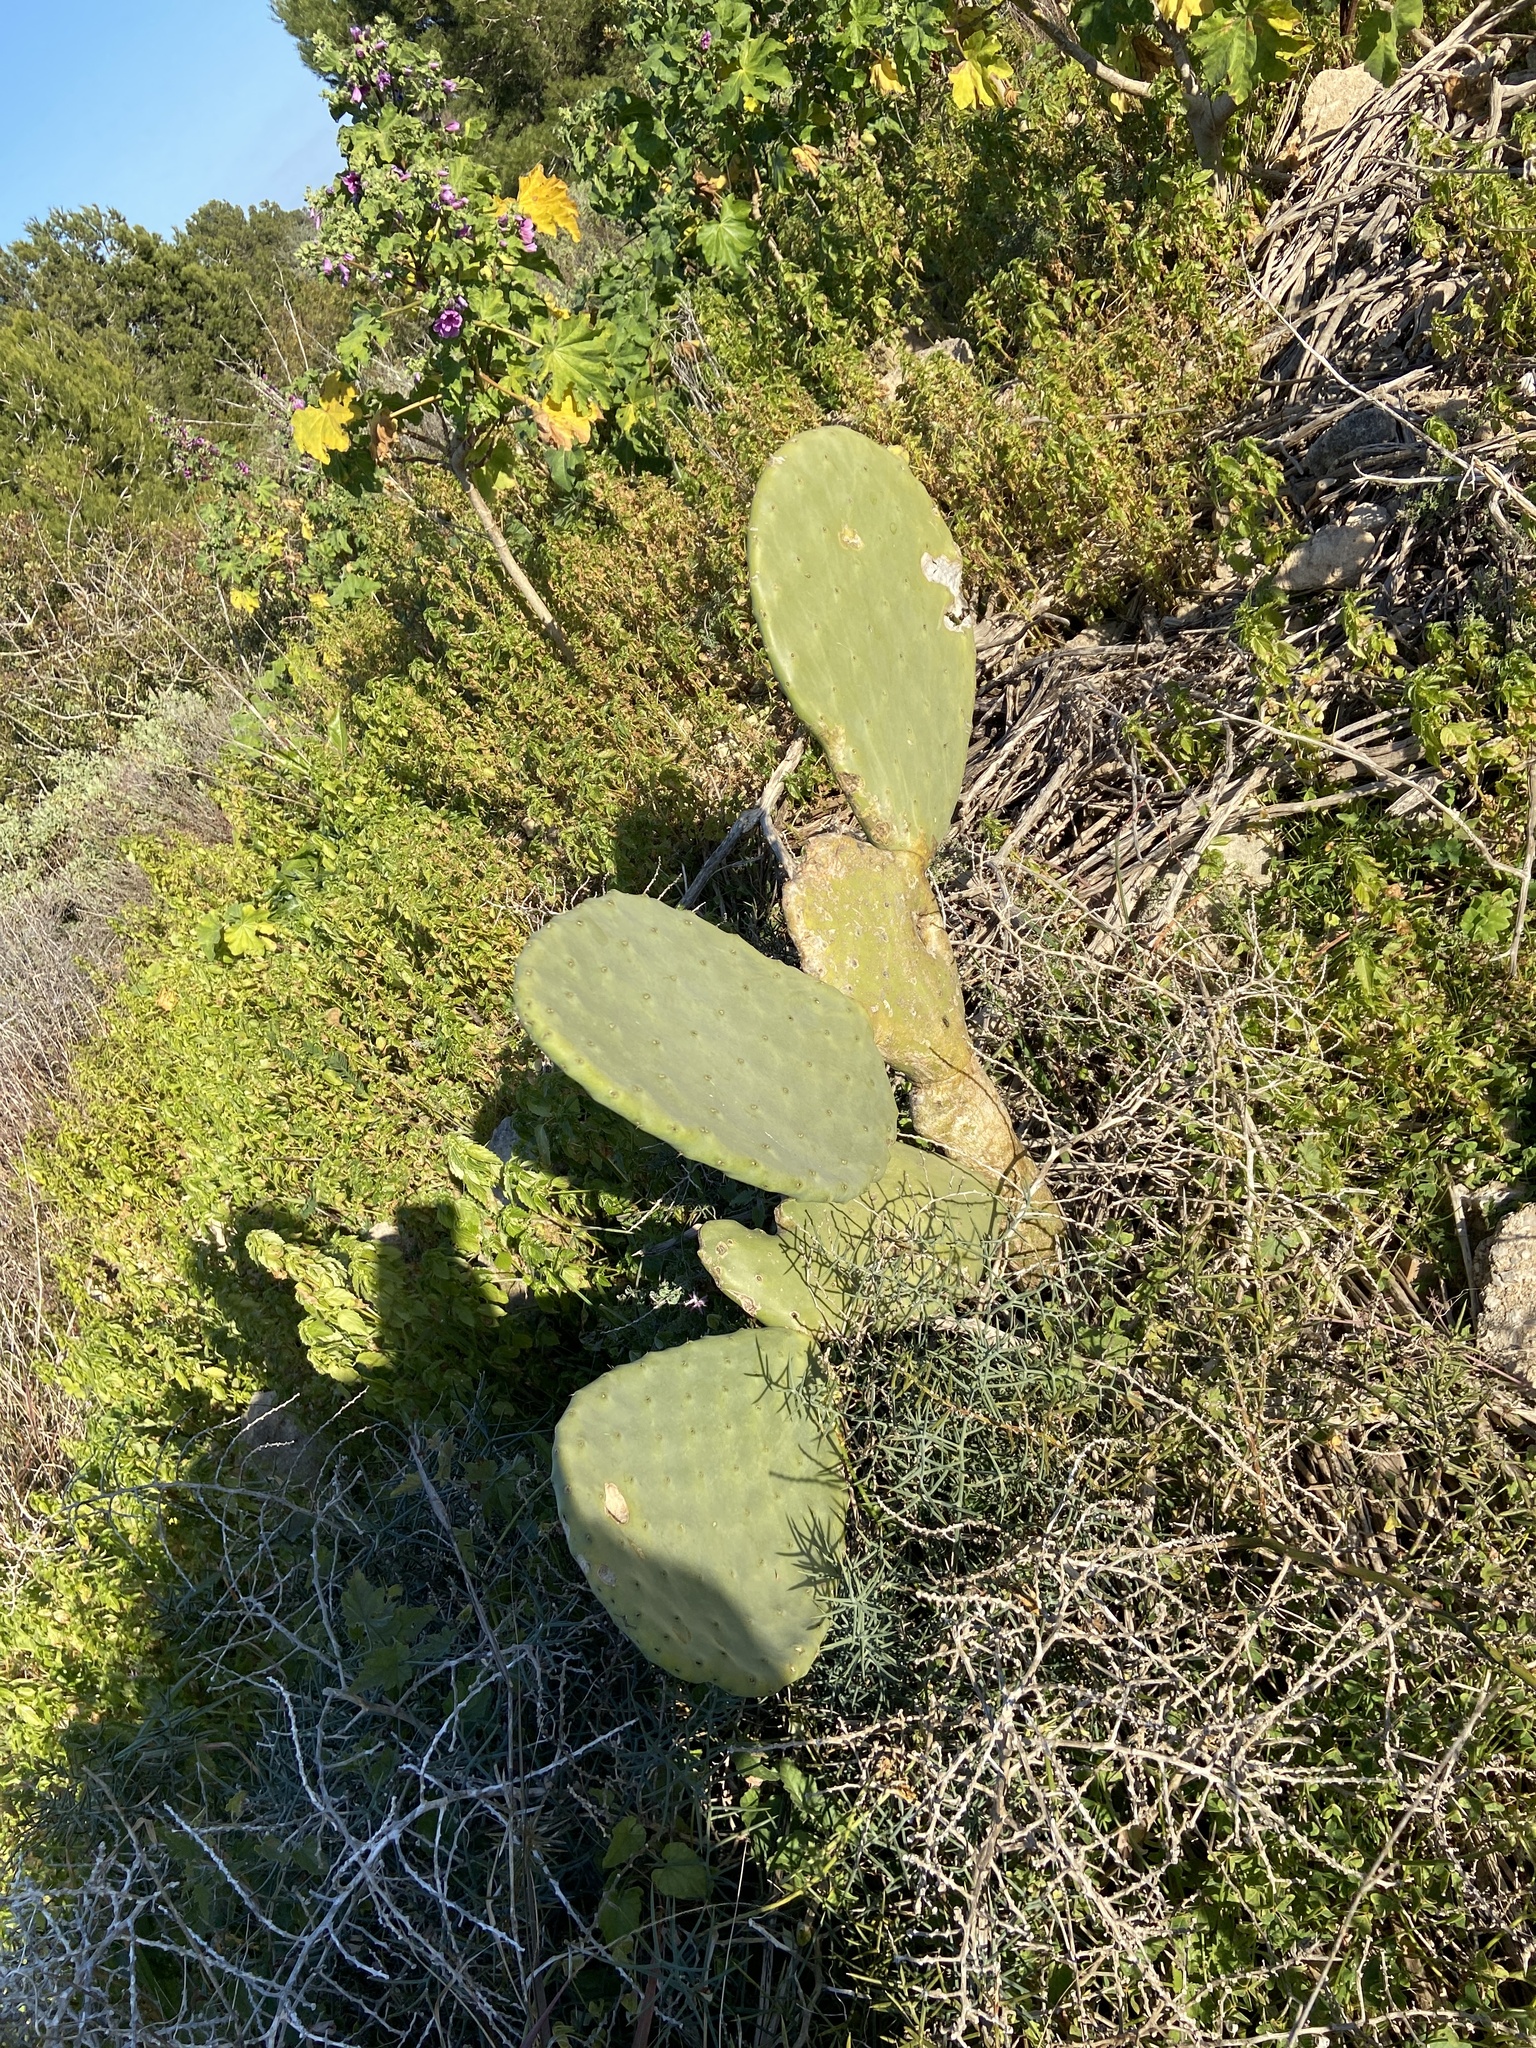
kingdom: Plantae
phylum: Tracheophyta
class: Magnoliopsida
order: Caryophyllales
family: Cactaceae
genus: Opuntia
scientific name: Opuntia ficus-indica
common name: Barbary fig
